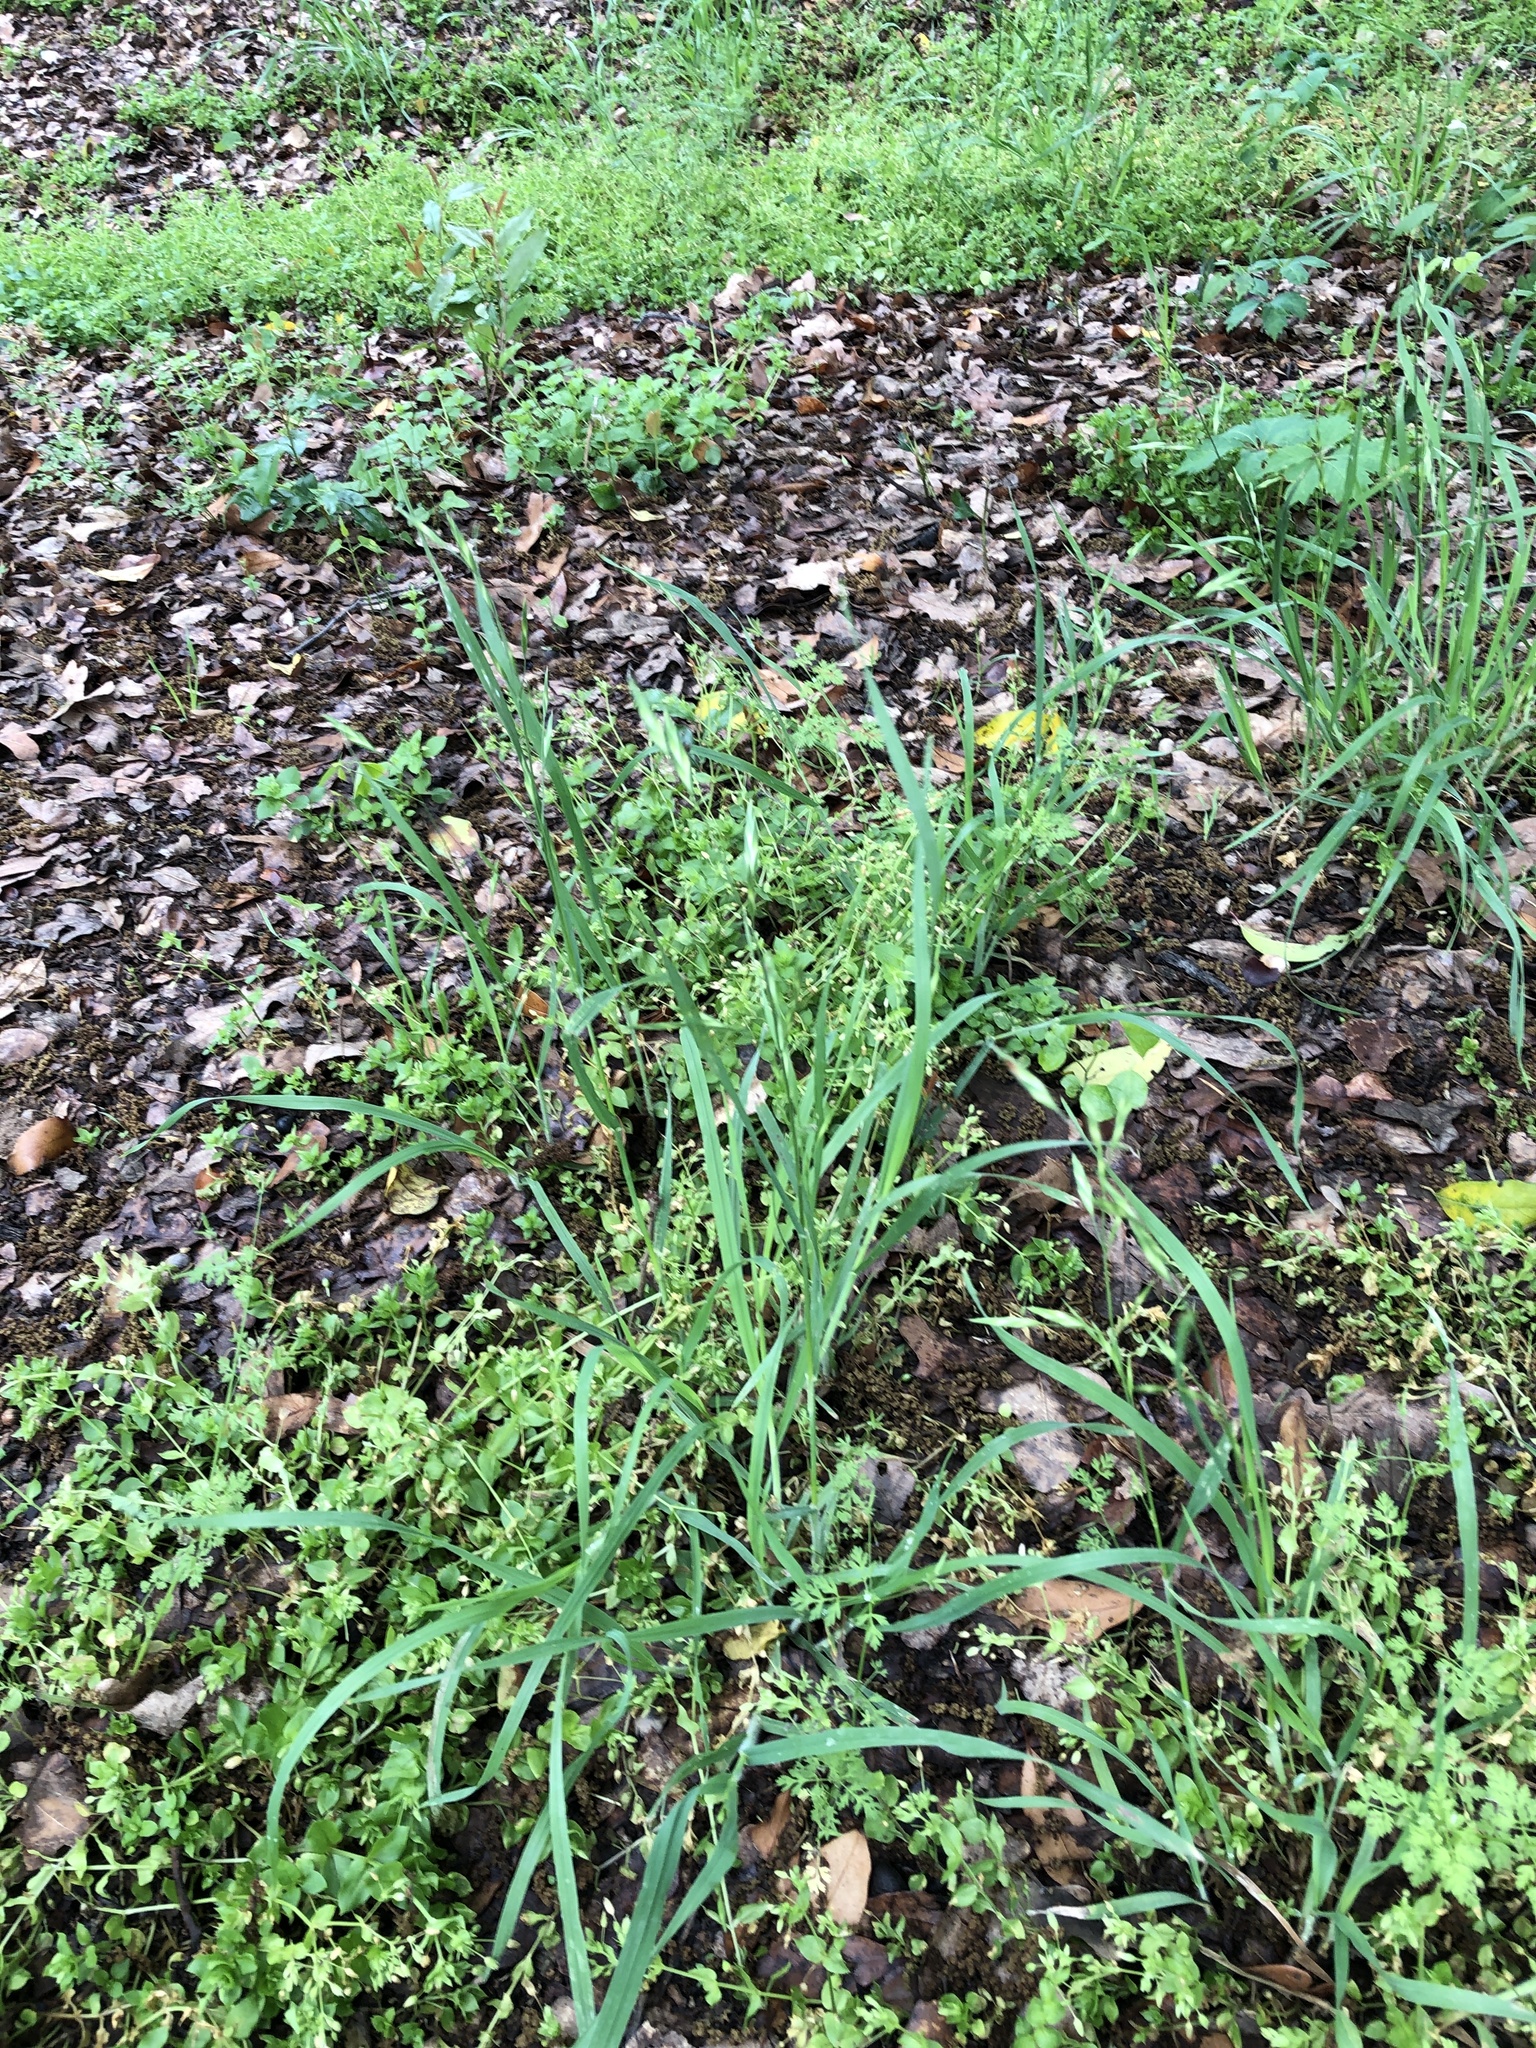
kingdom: Plantae
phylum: Tracheophyta
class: Liliopsida
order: Poales
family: Poaceae
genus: Bromus
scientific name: Bromus catharticus
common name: Rescuegrass
